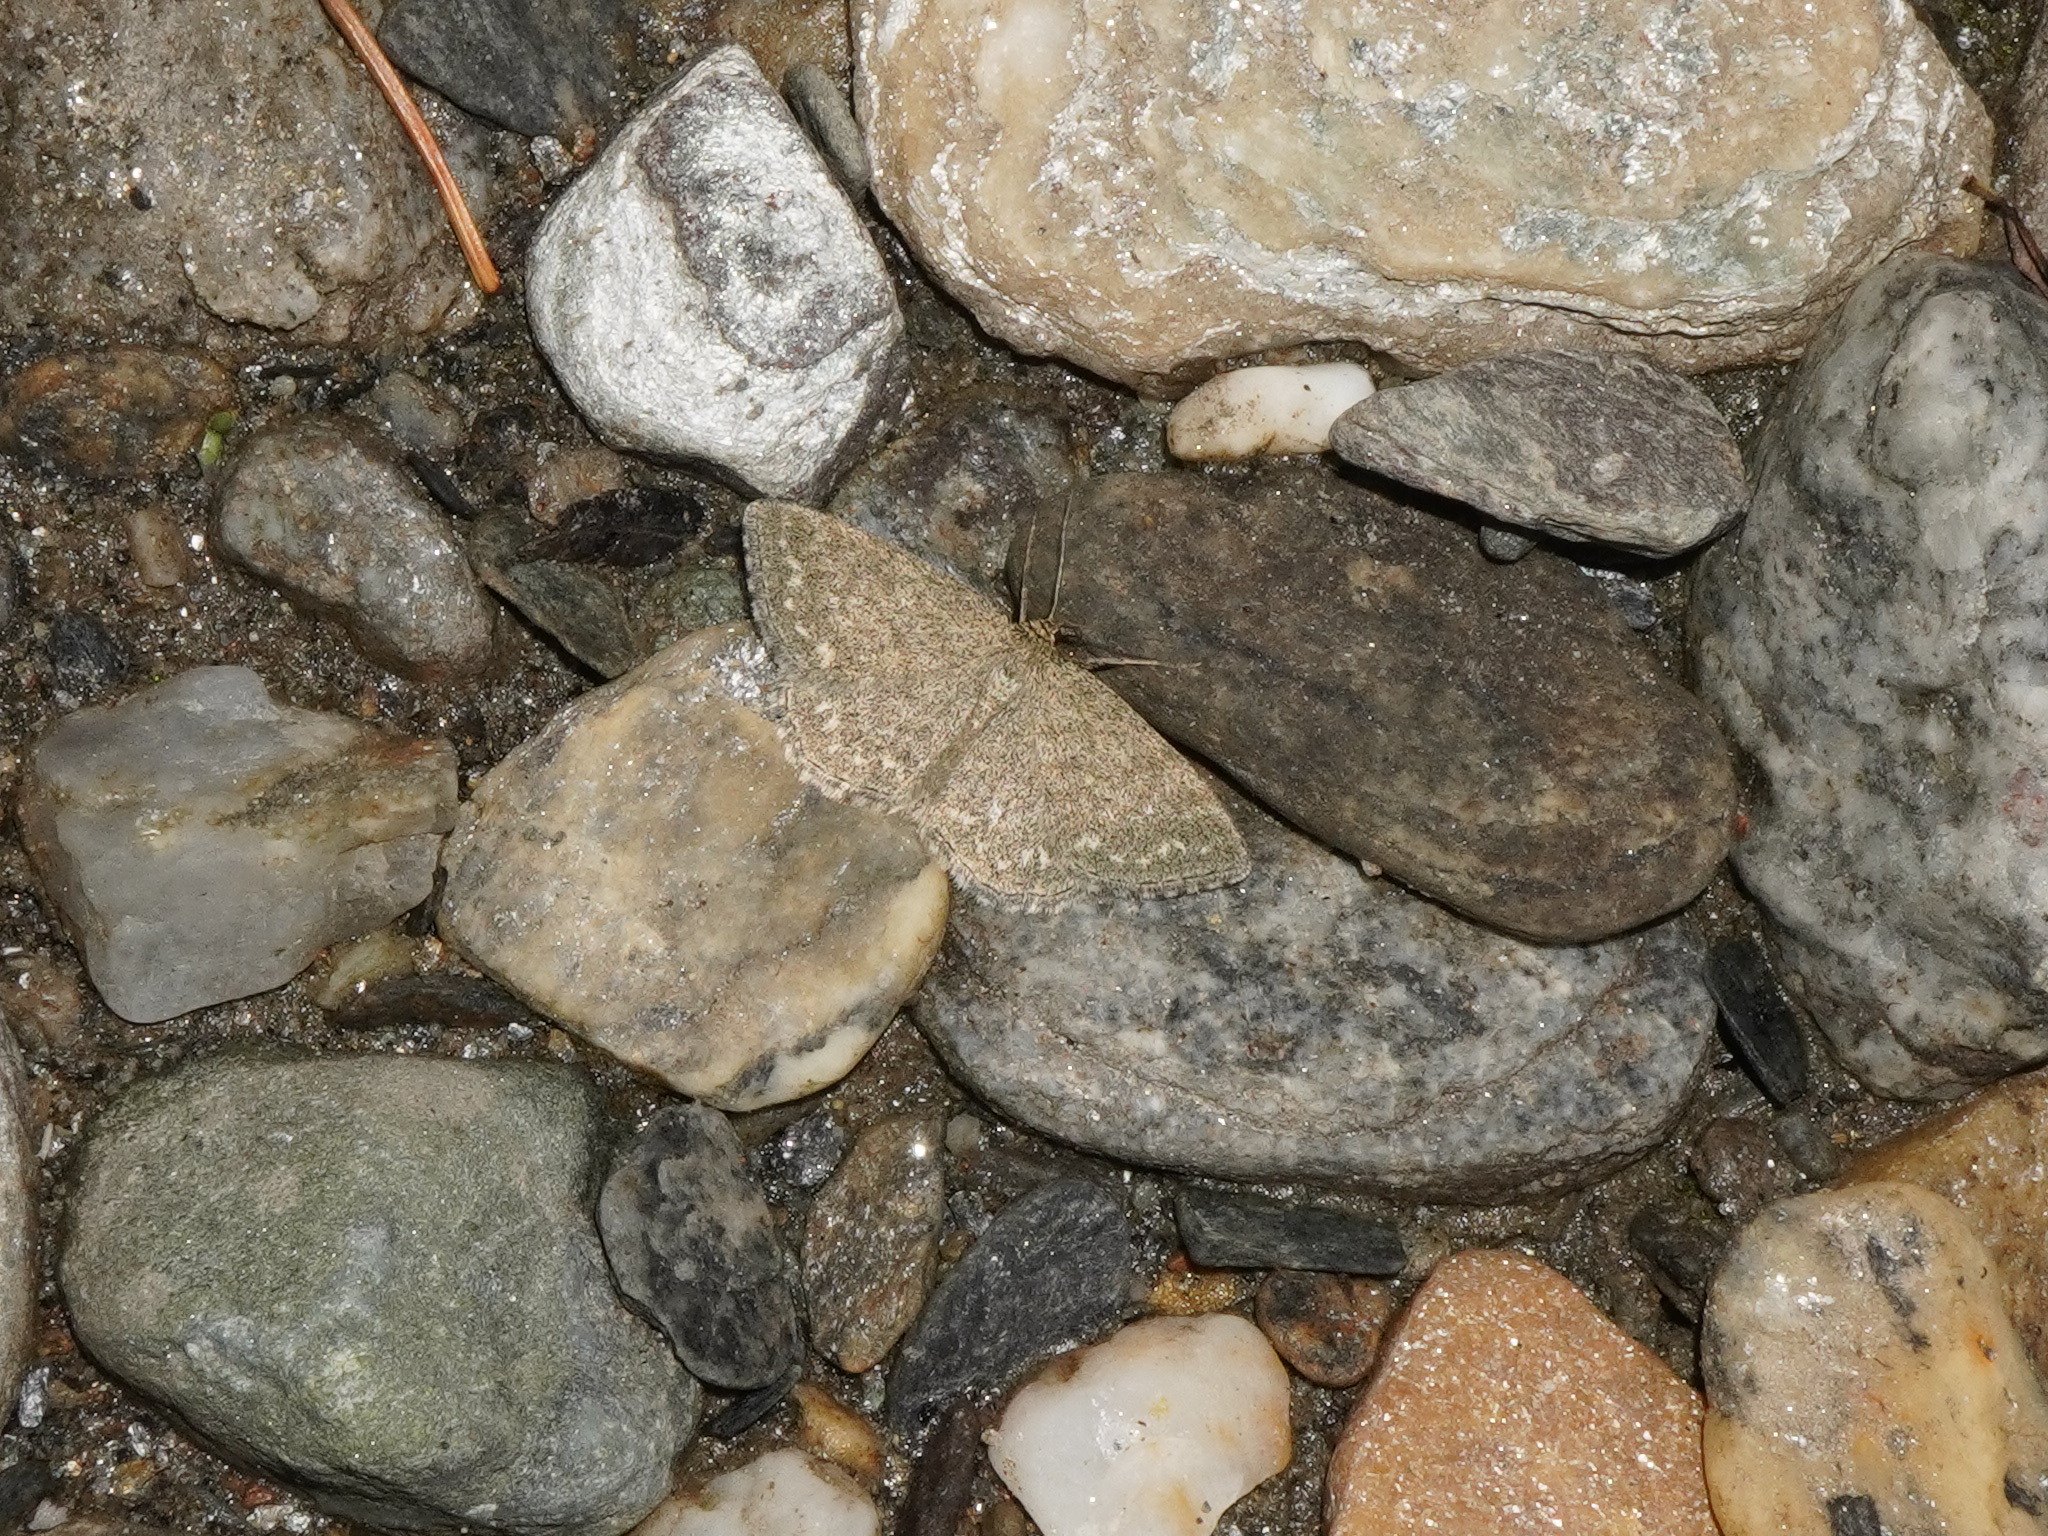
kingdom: Animalia
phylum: Arthropoda
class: Insecta
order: Lepidoptera
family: Geometridae
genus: Scopula
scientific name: Scopula immorata
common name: Lewes wave
